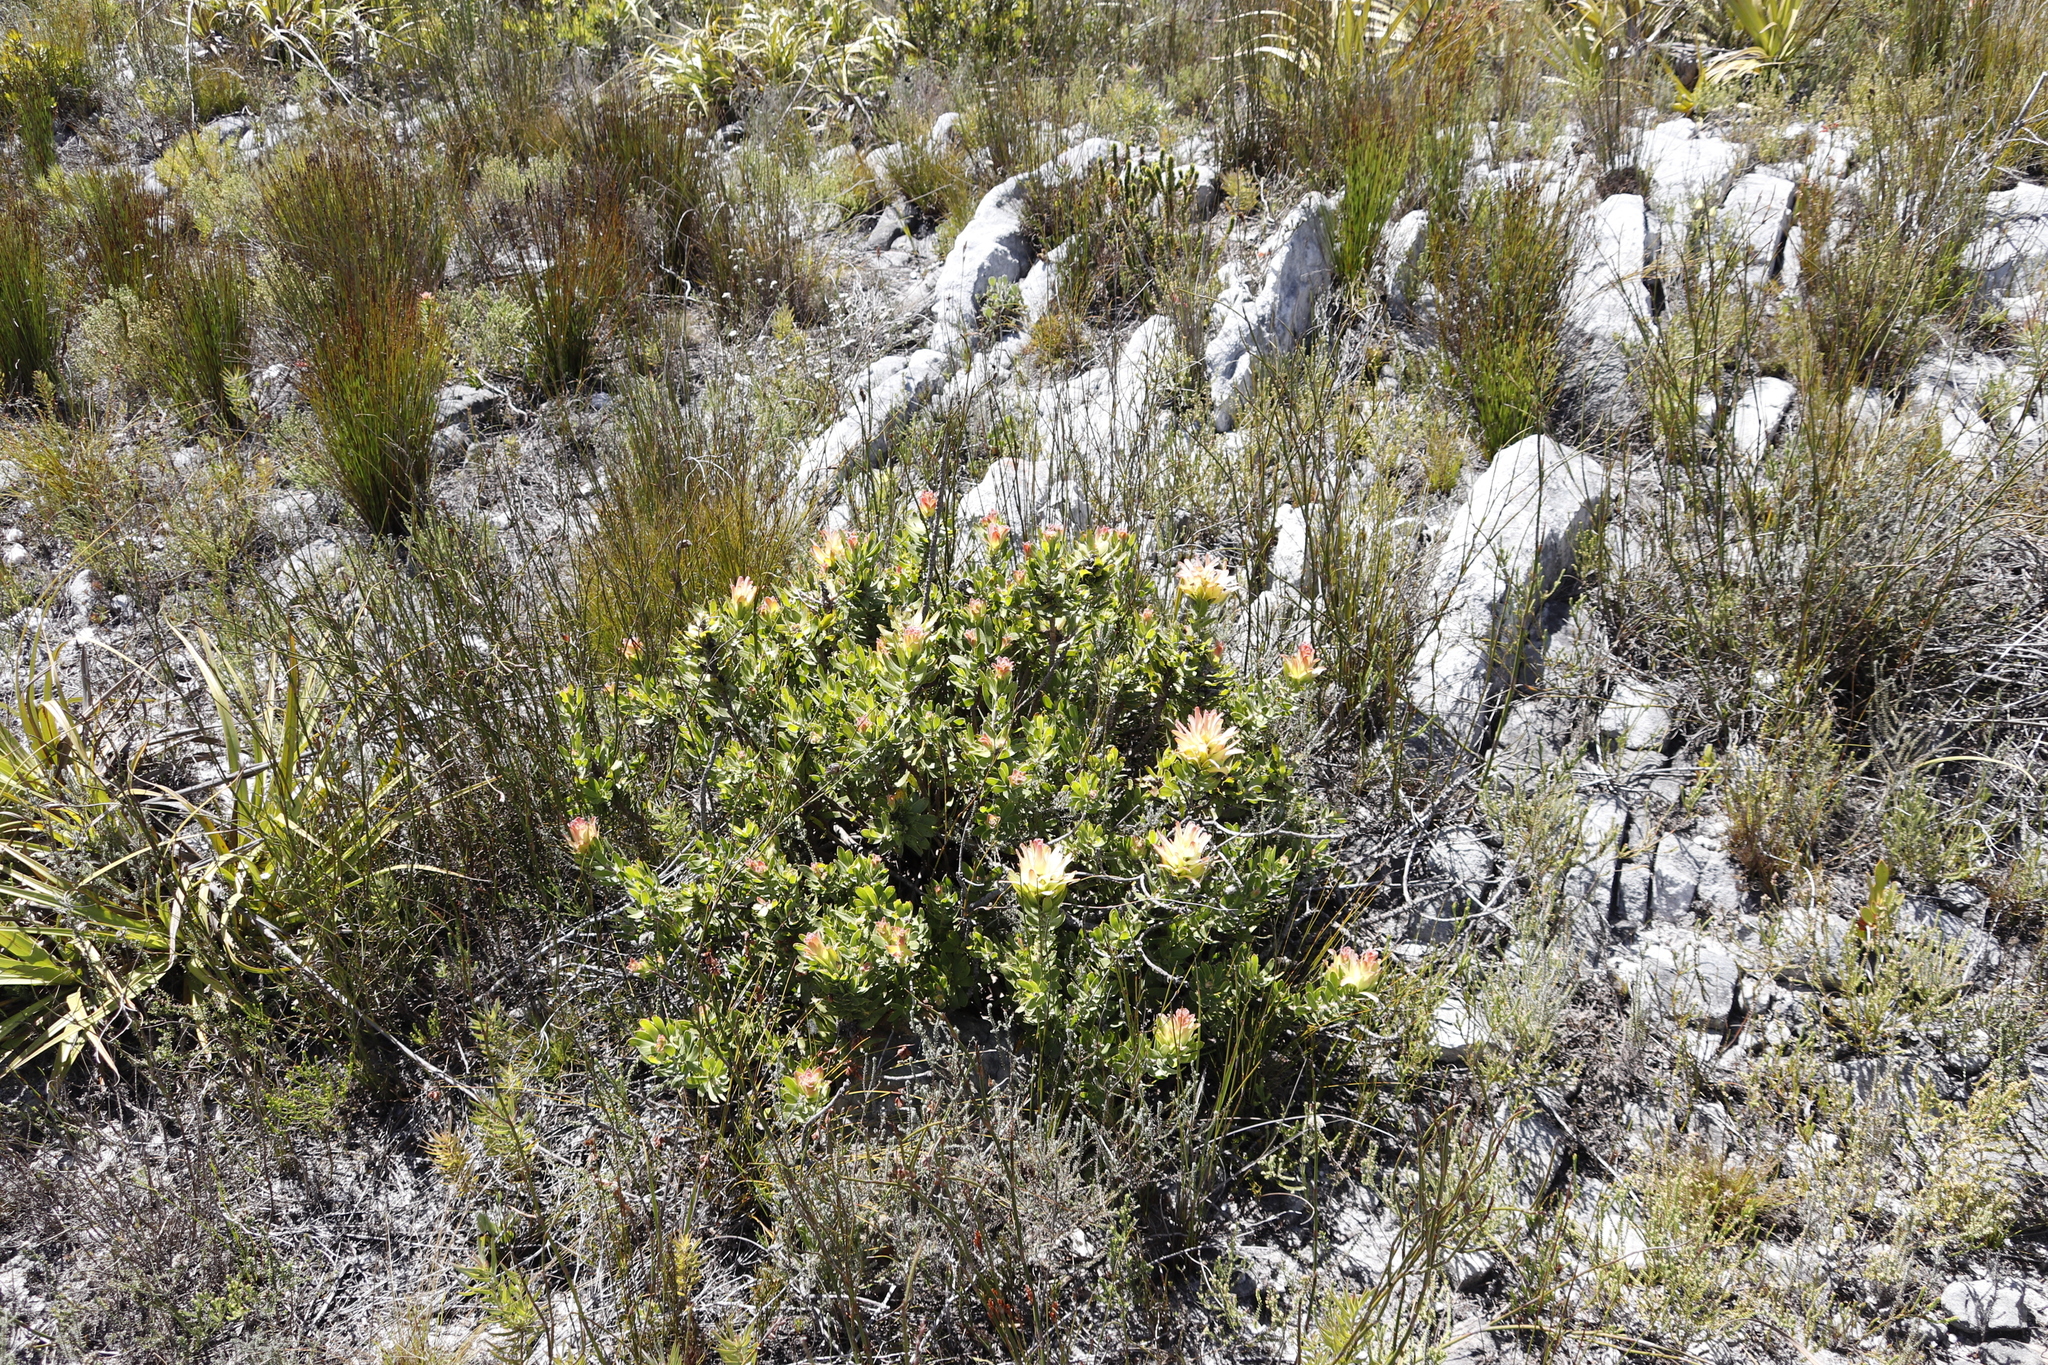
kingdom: Plantae
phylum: Tracheophyta
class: Magnoliopsida
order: Proteales
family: Proteaceae
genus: Mimetes
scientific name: Mimetes cucullatus
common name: Common pagoda
